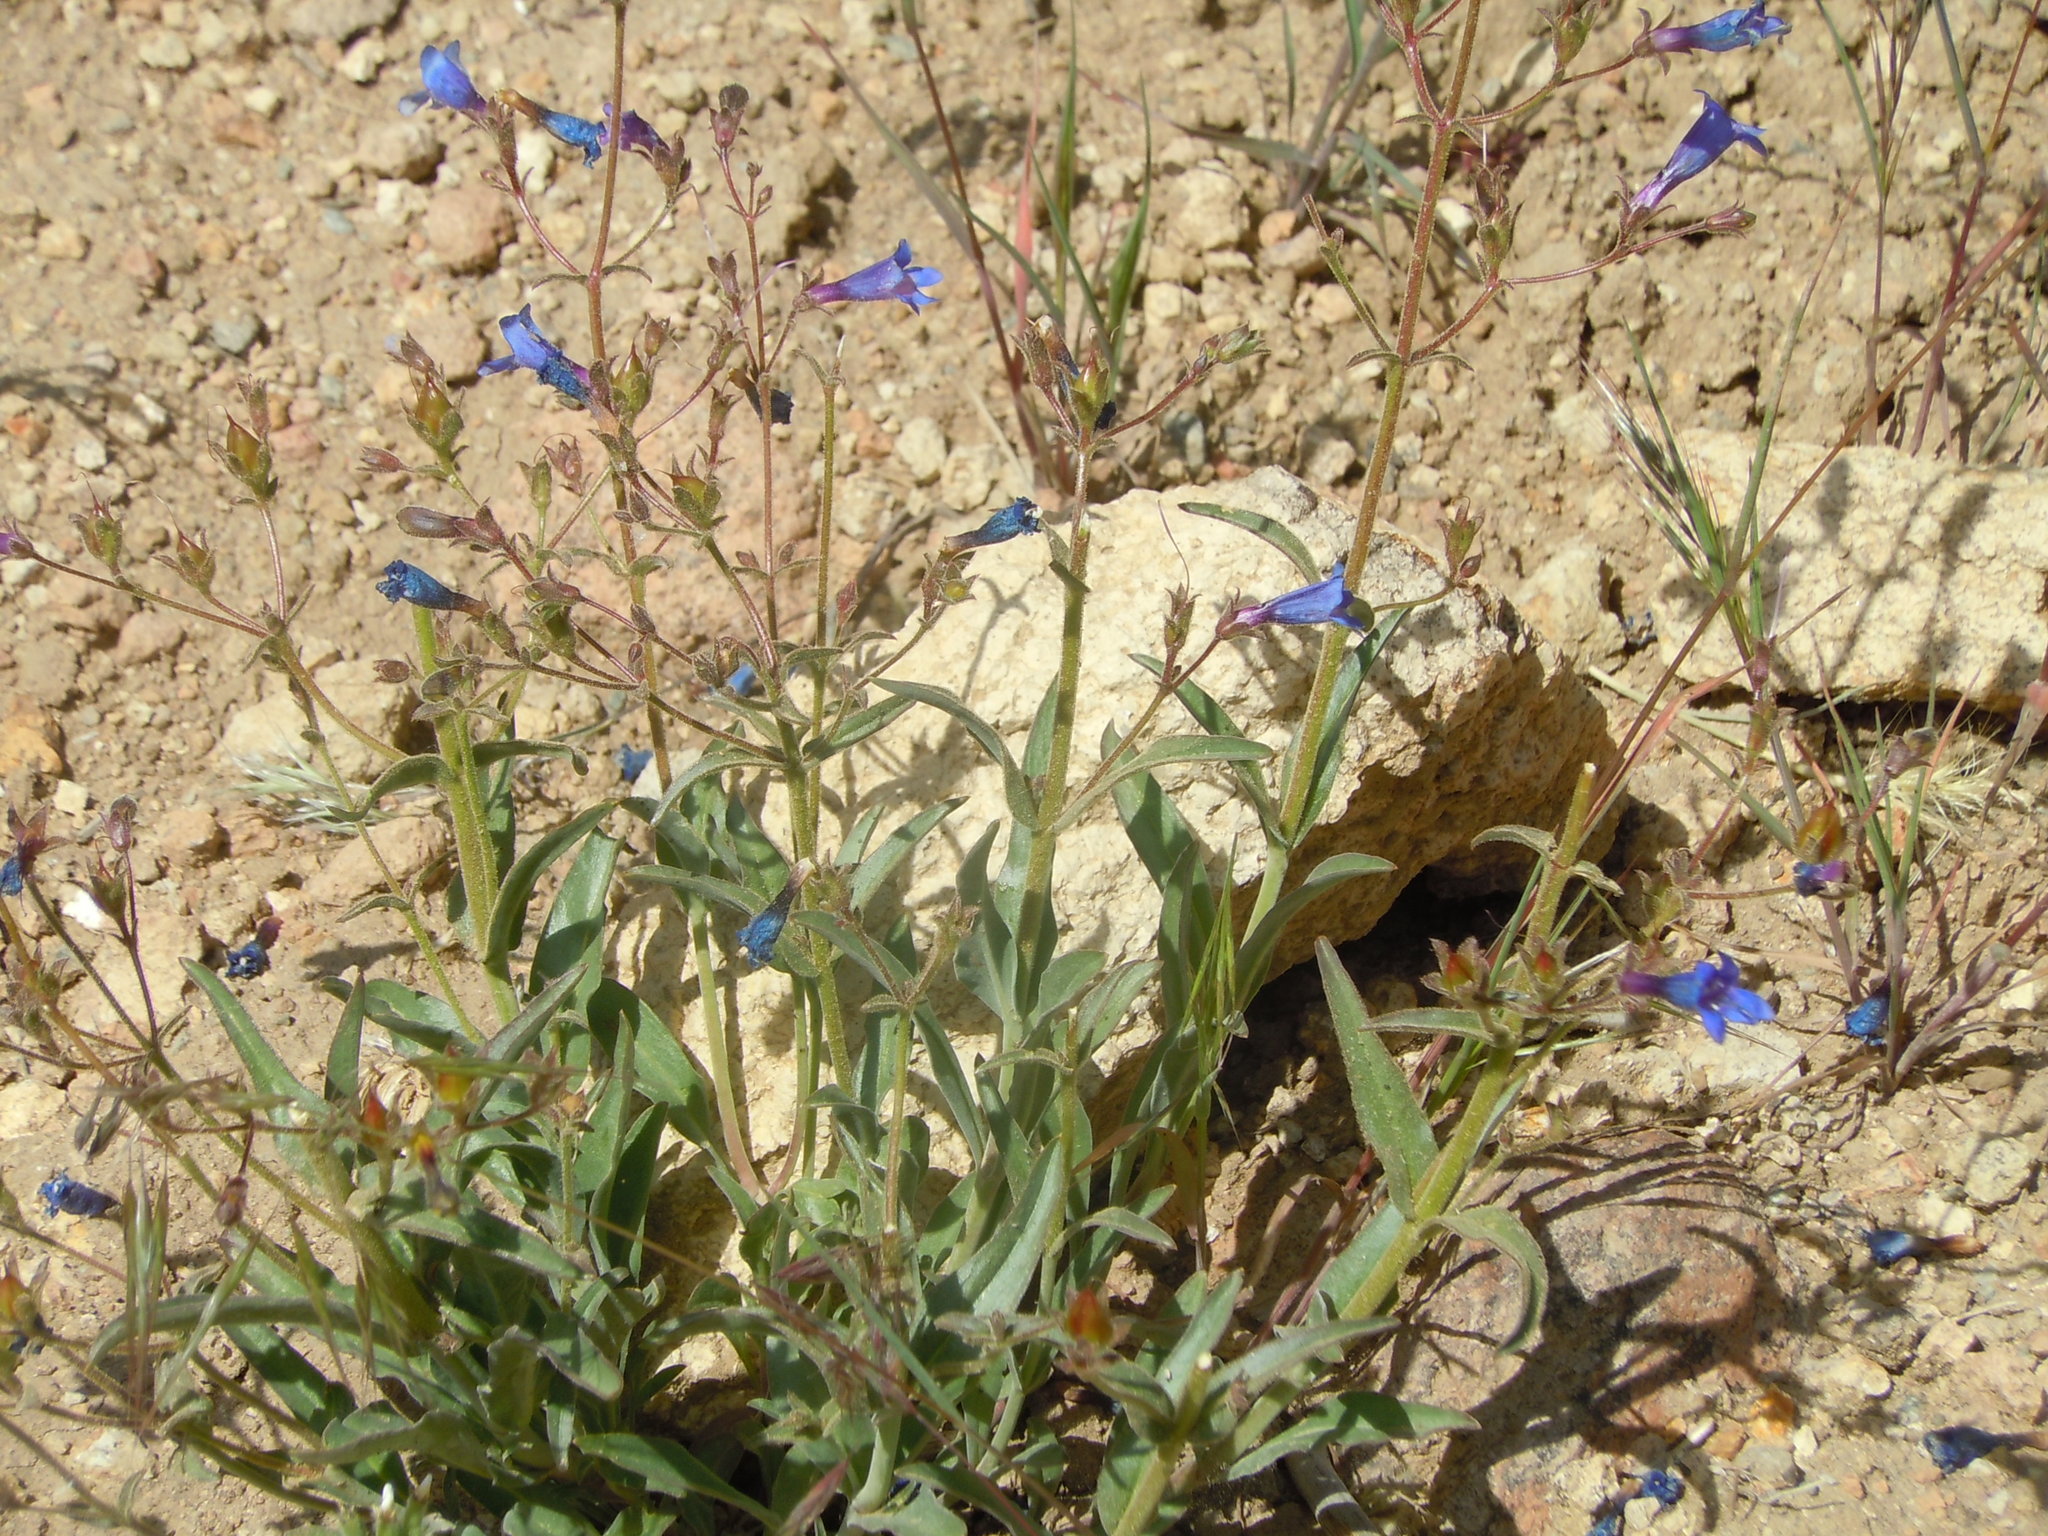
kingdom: Plantae
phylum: Tracheophyta
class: Magnoliopsida
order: Lamiales
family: Plantaginaceae
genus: Penstemon
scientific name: Penstemon roezlii
